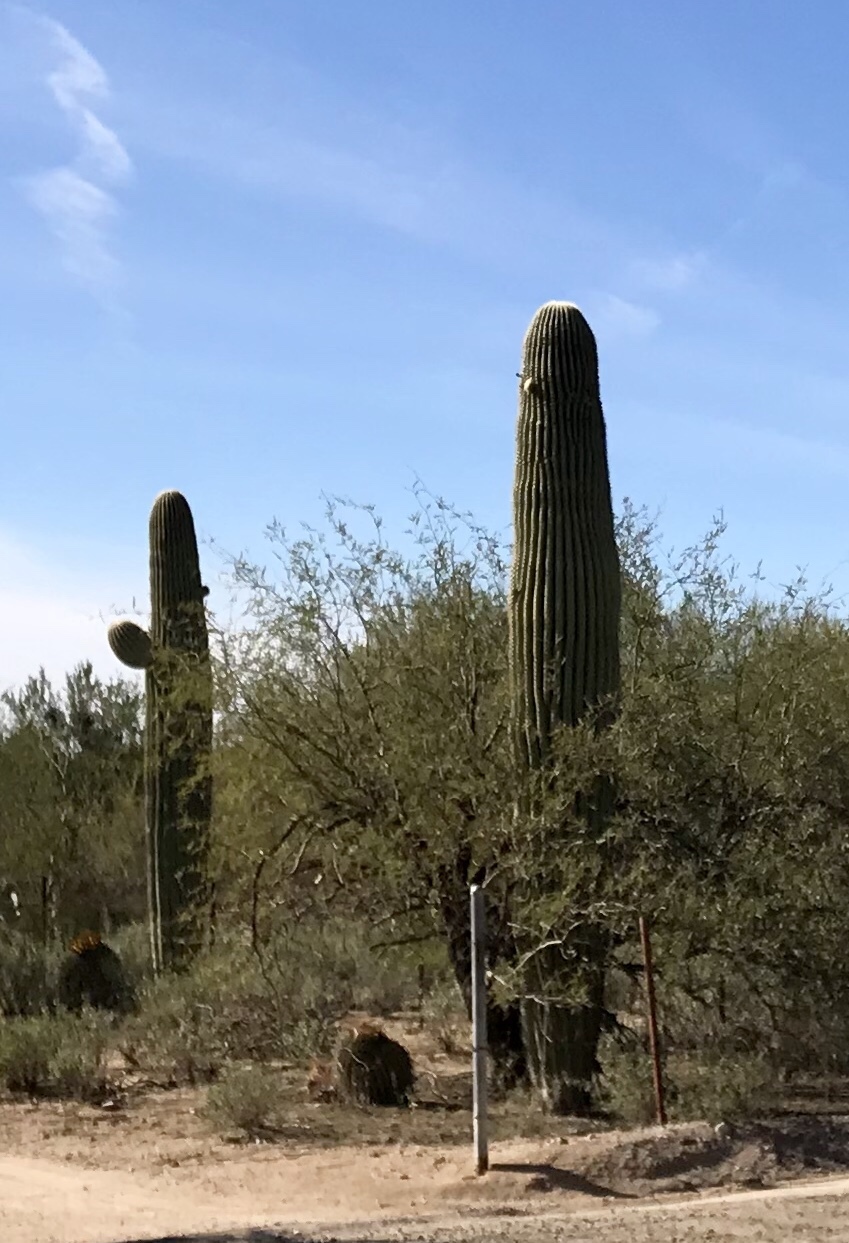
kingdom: Plantae
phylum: Tracheophyta
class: Magnoliopsida
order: Caryophyllales
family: Cactaceae
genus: Carnegiea
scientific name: Carnegiea gigantea
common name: Saguaro
